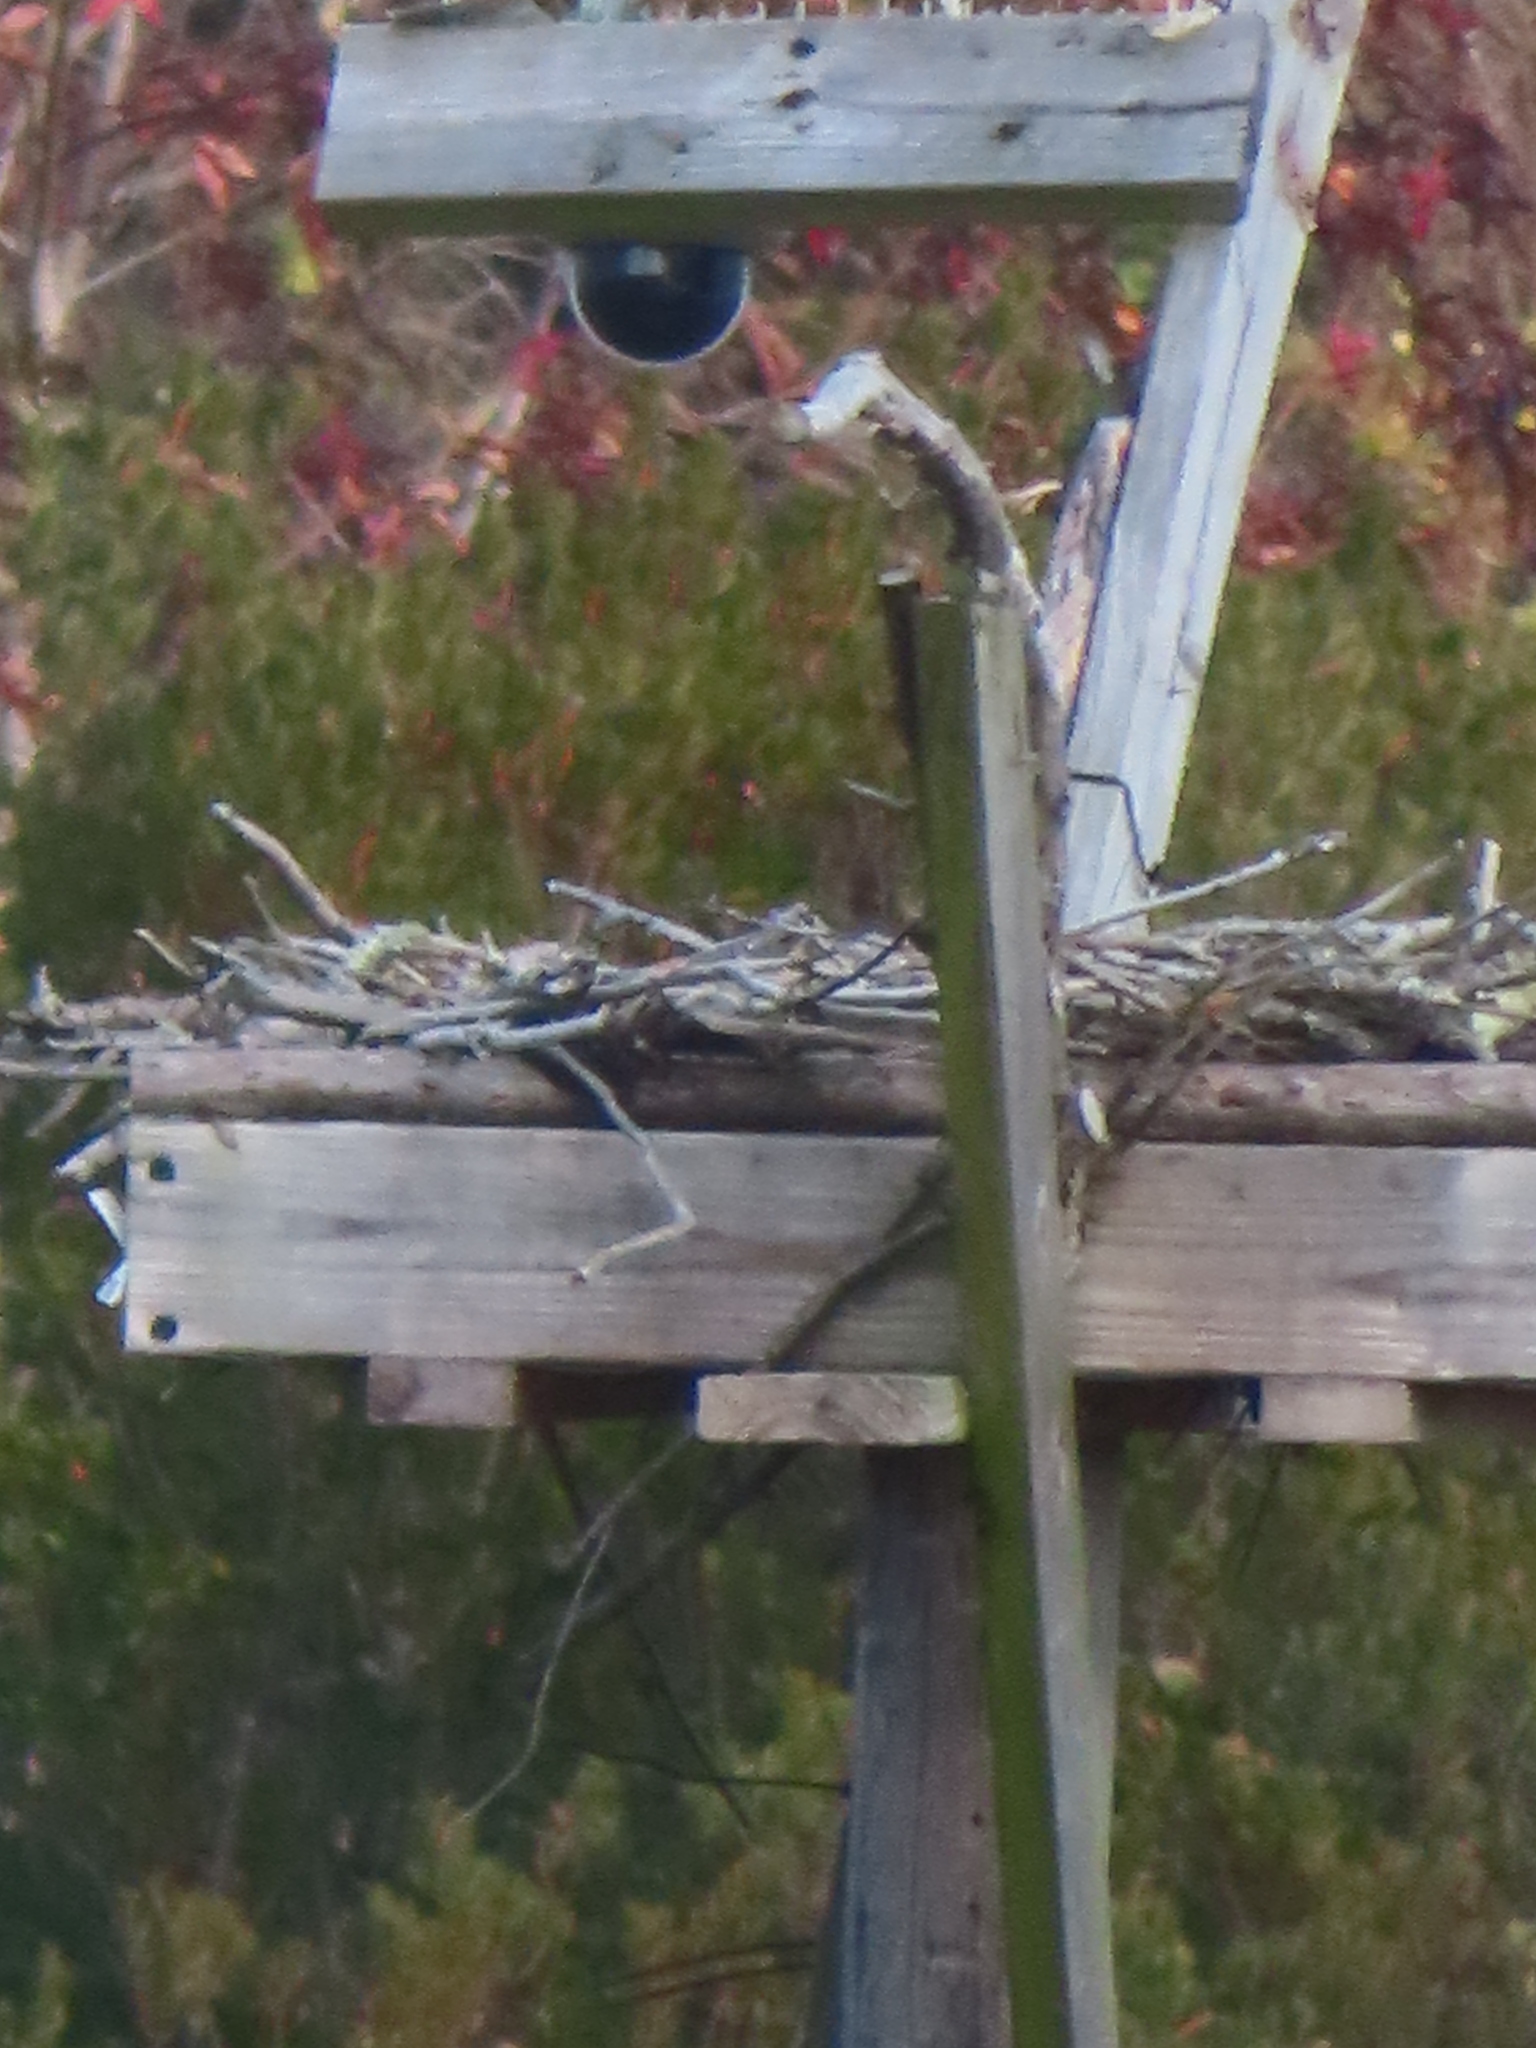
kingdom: Animalia
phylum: Chordata
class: Aves
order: Accipitriformes
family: Pandionidae
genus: Pandion
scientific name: Pandion haliaetus
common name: Osprey
